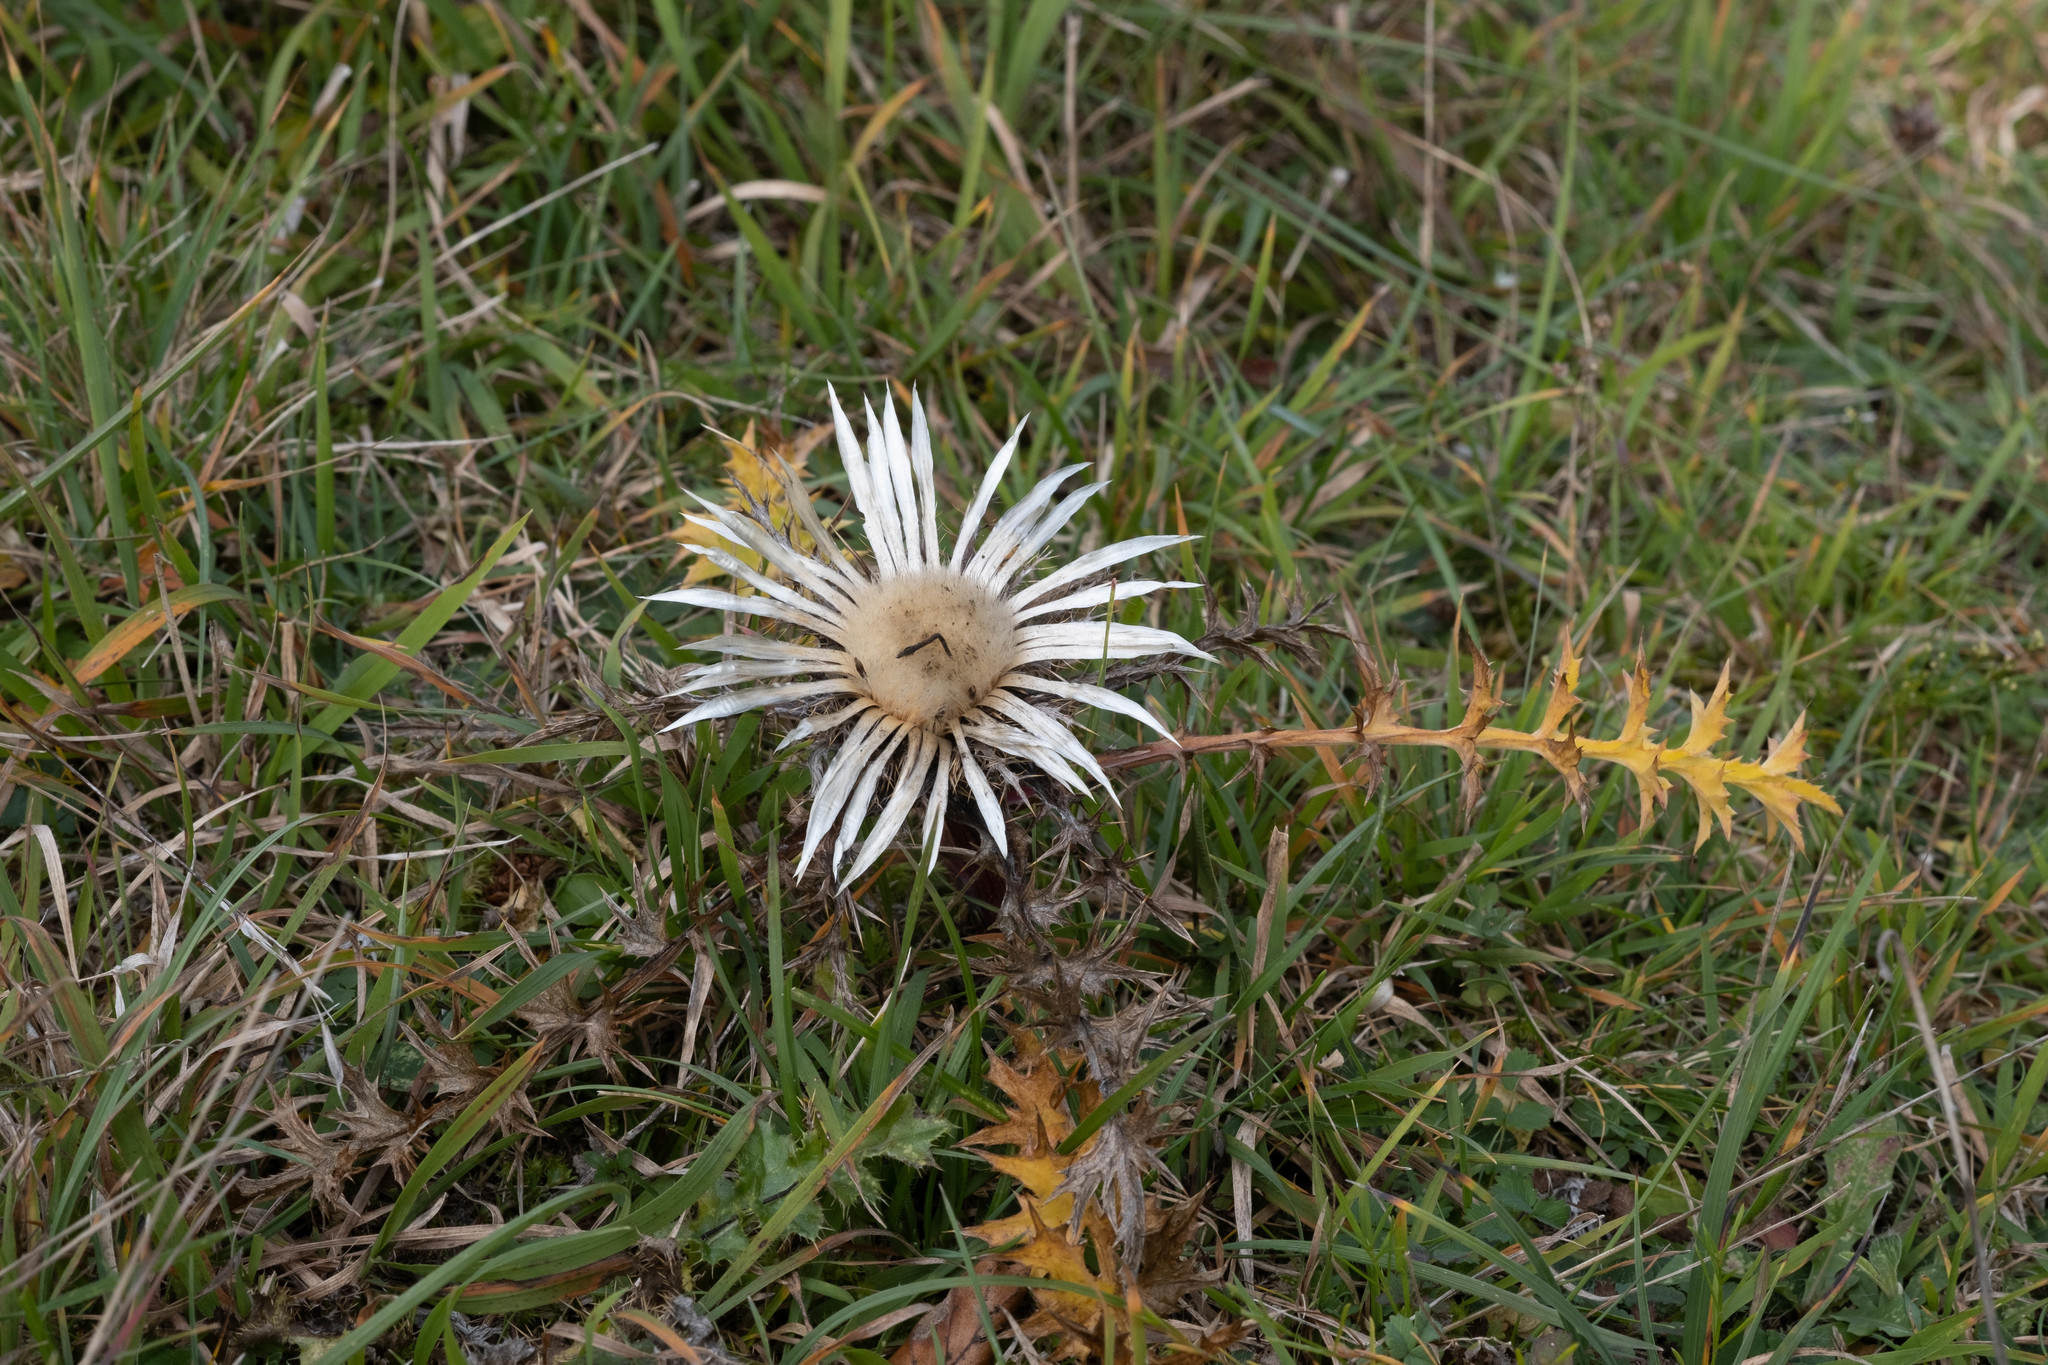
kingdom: Plantae
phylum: Tracheophyta
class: Magnoliopsida
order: Asterales
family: Asteraceae
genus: Carlina
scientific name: Carlina acaulis
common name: Stemless carline thistle
